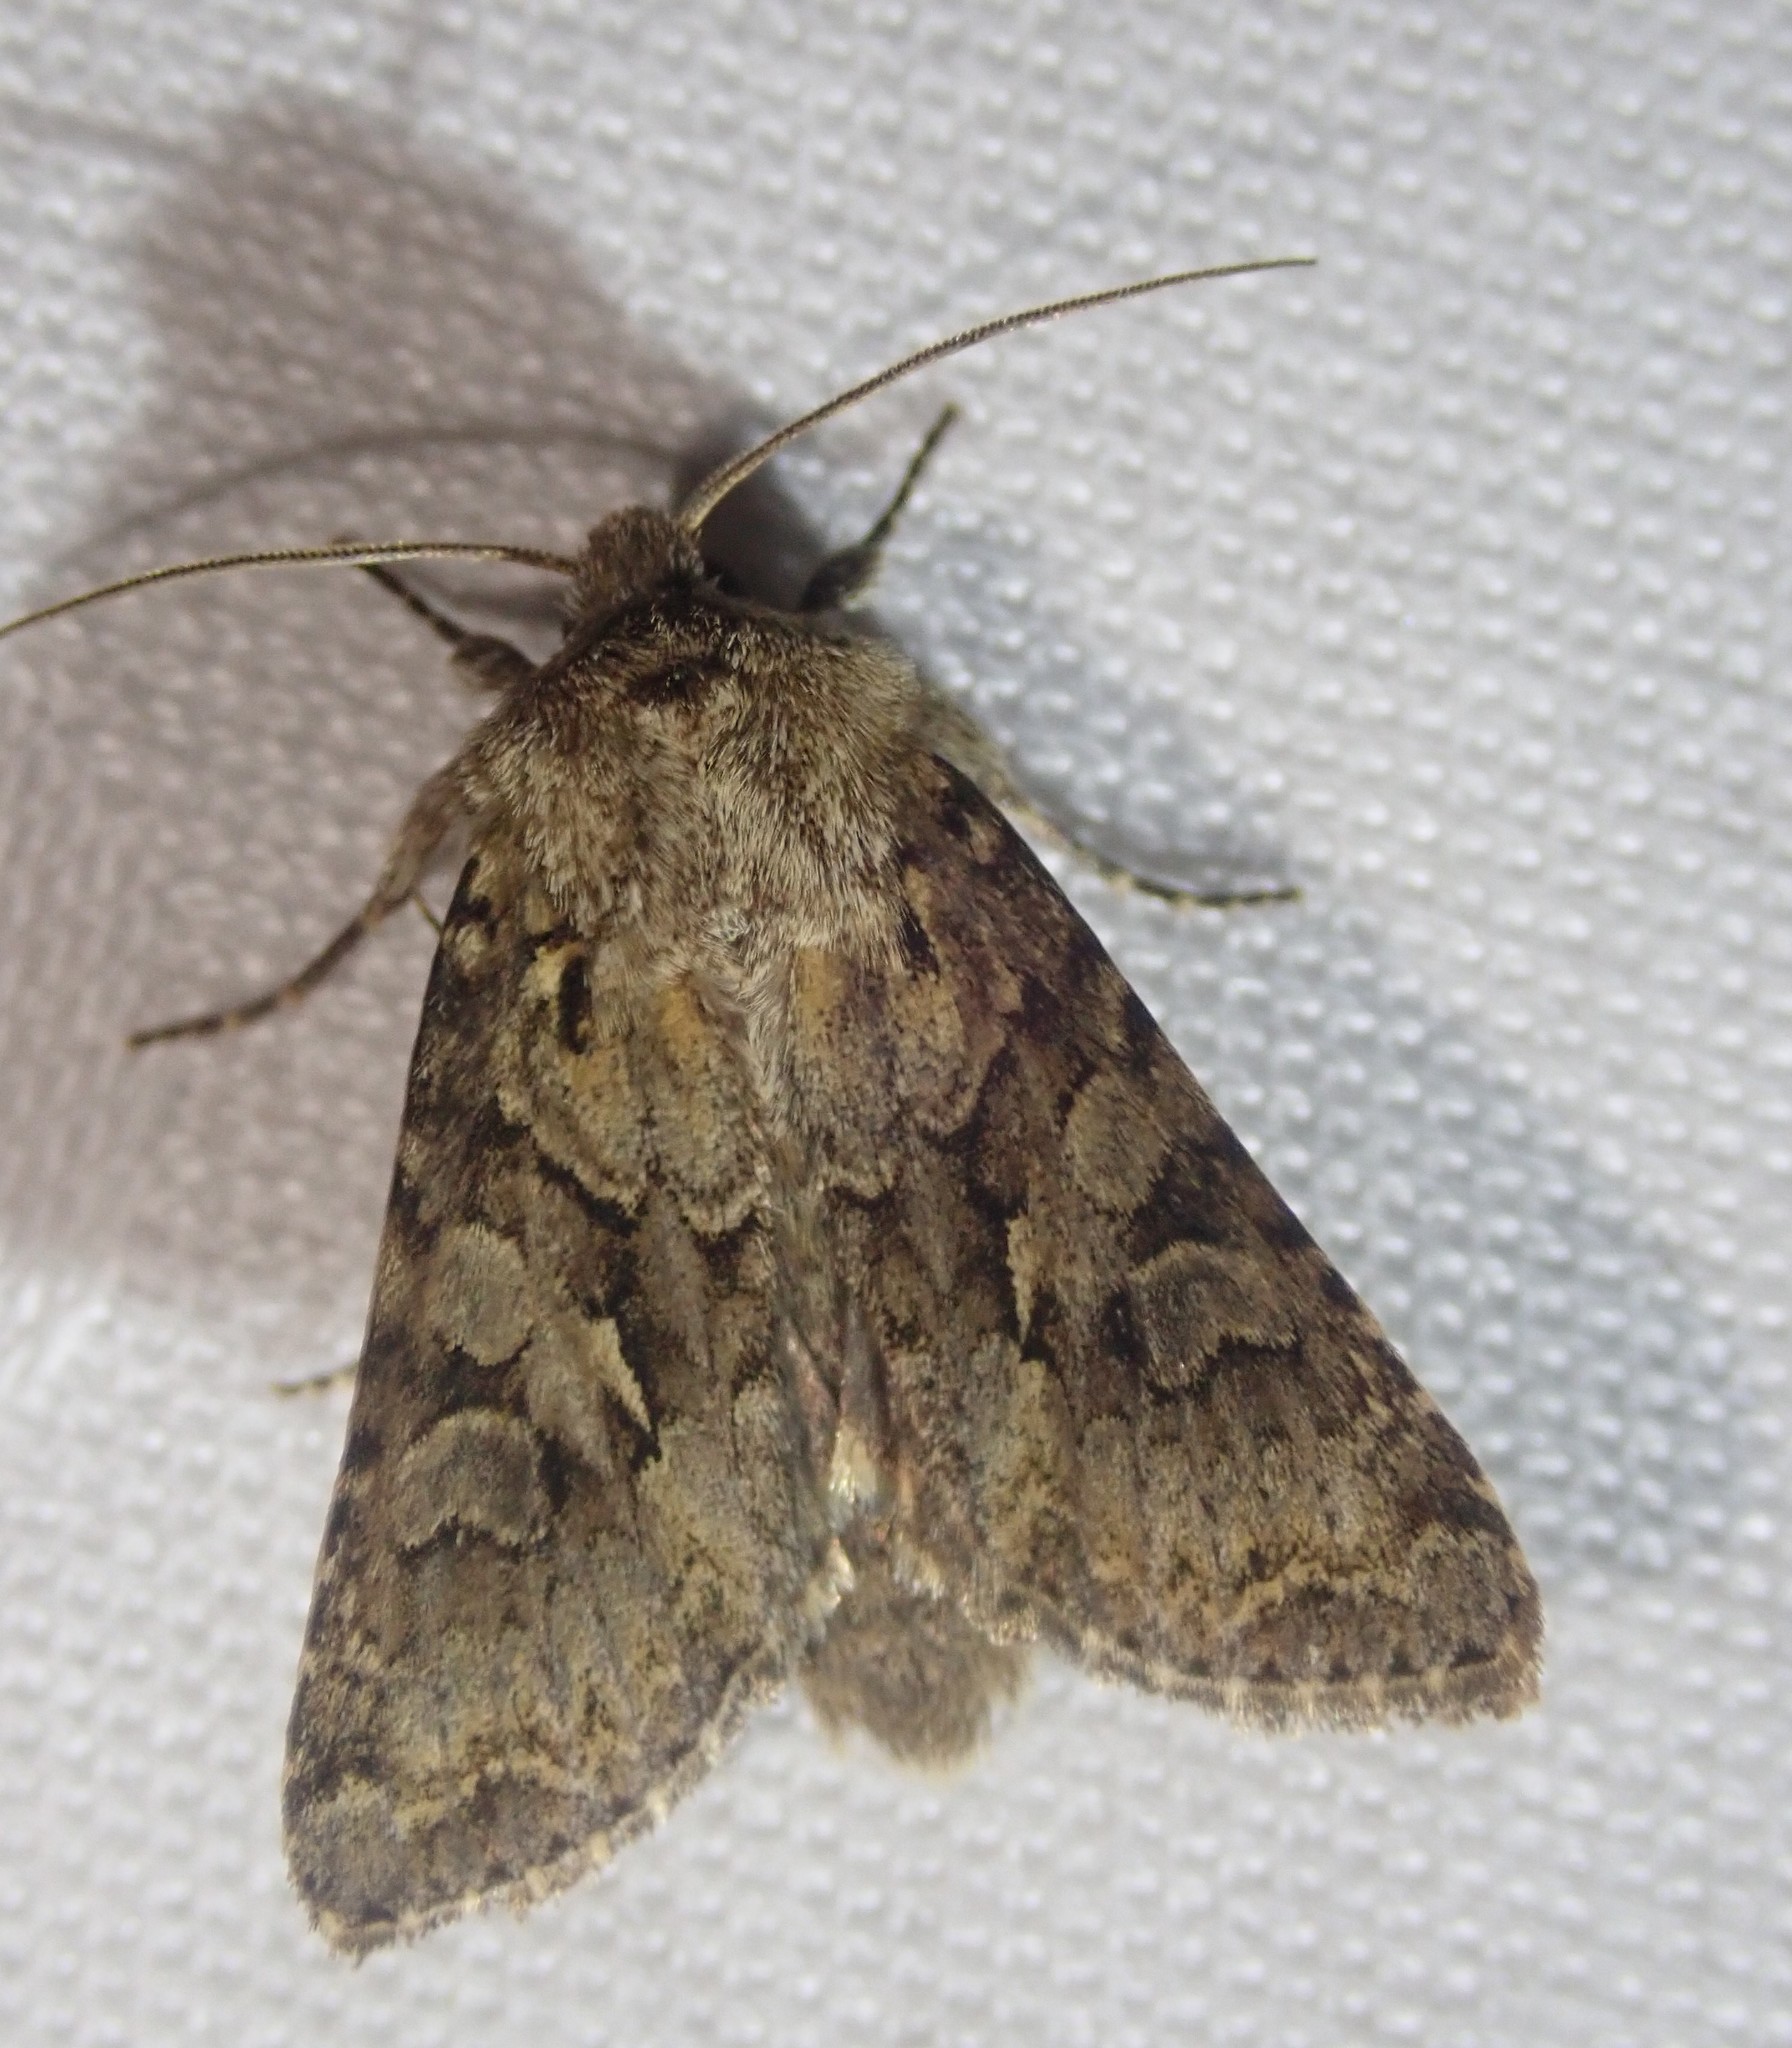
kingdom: Animalia
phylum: Arthropoda
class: Insecta
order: Lepidoptera
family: Noctuidae
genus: Hada
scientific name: Hada plebeja
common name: Shears
